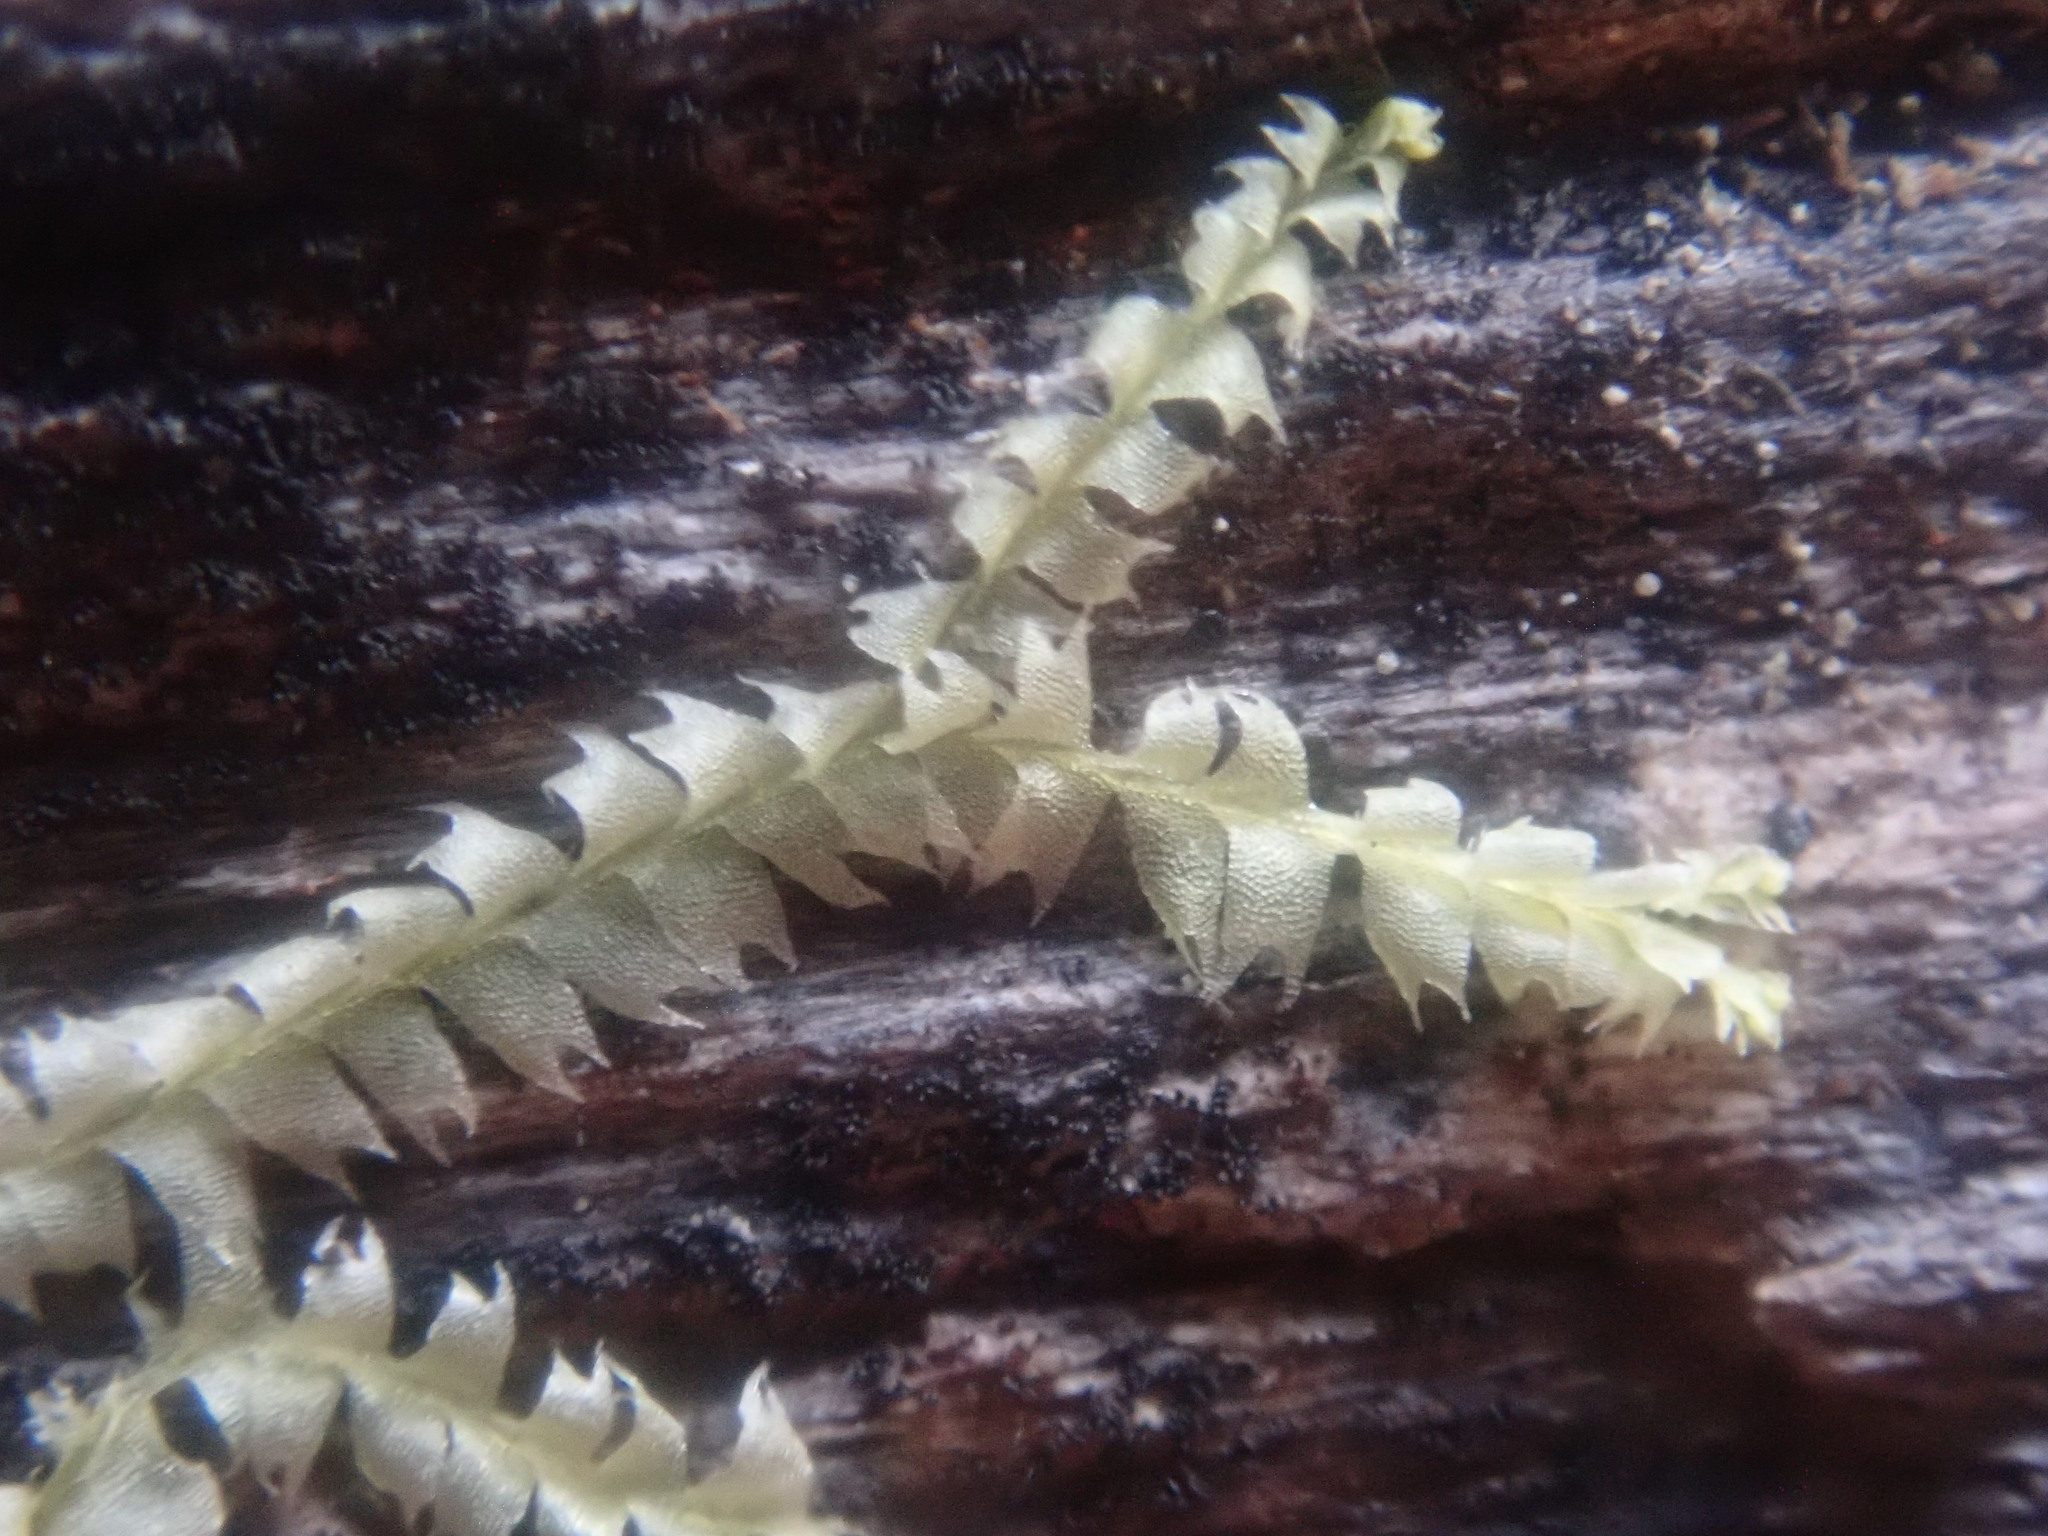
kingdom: Plantae
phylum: Marchantiophyta
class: Jungermanniopsida
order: Jungermanniales
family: Lophocoleaceae
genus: Lophocolea
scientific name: Lophocolea heterophylla
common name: Variable-leaved crestwort
